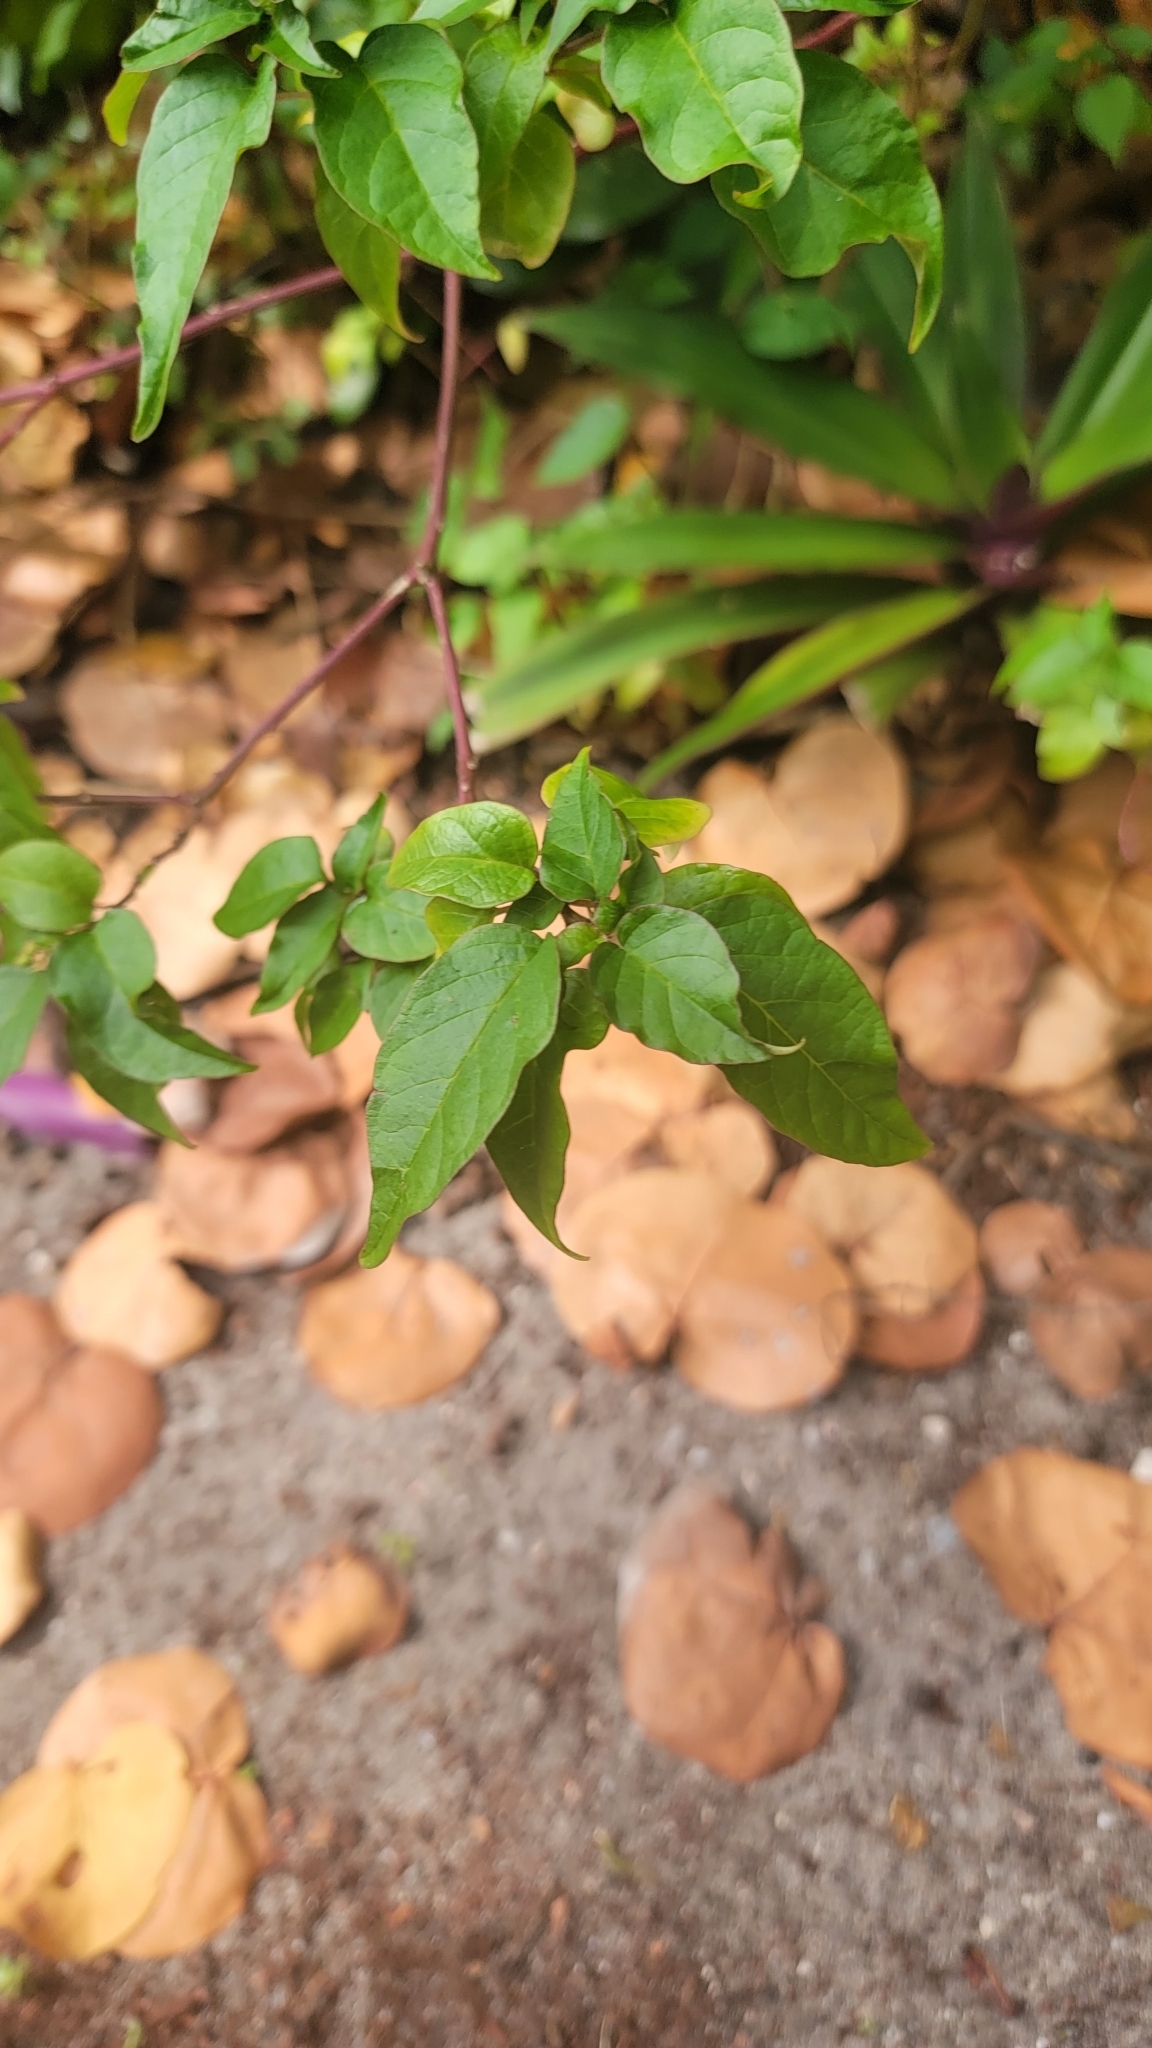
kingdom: Plantae
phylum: Tracheophyta
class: Magnoliopsida
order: Caryophyllales
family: Phytolaccaceae
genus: Rivina
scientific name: Rivina humilis
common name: Rougeplant
